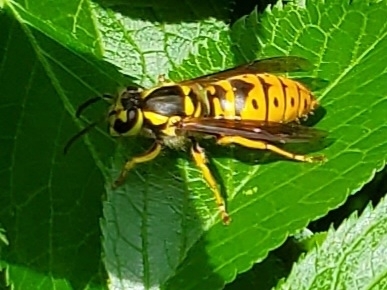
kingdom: Animalia
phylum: Arthropoda
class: Insecta
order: Hymenoptera
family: Vespidae
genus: Vespula
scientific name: Vespula maculifrons
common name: Eastern yellowjacket
